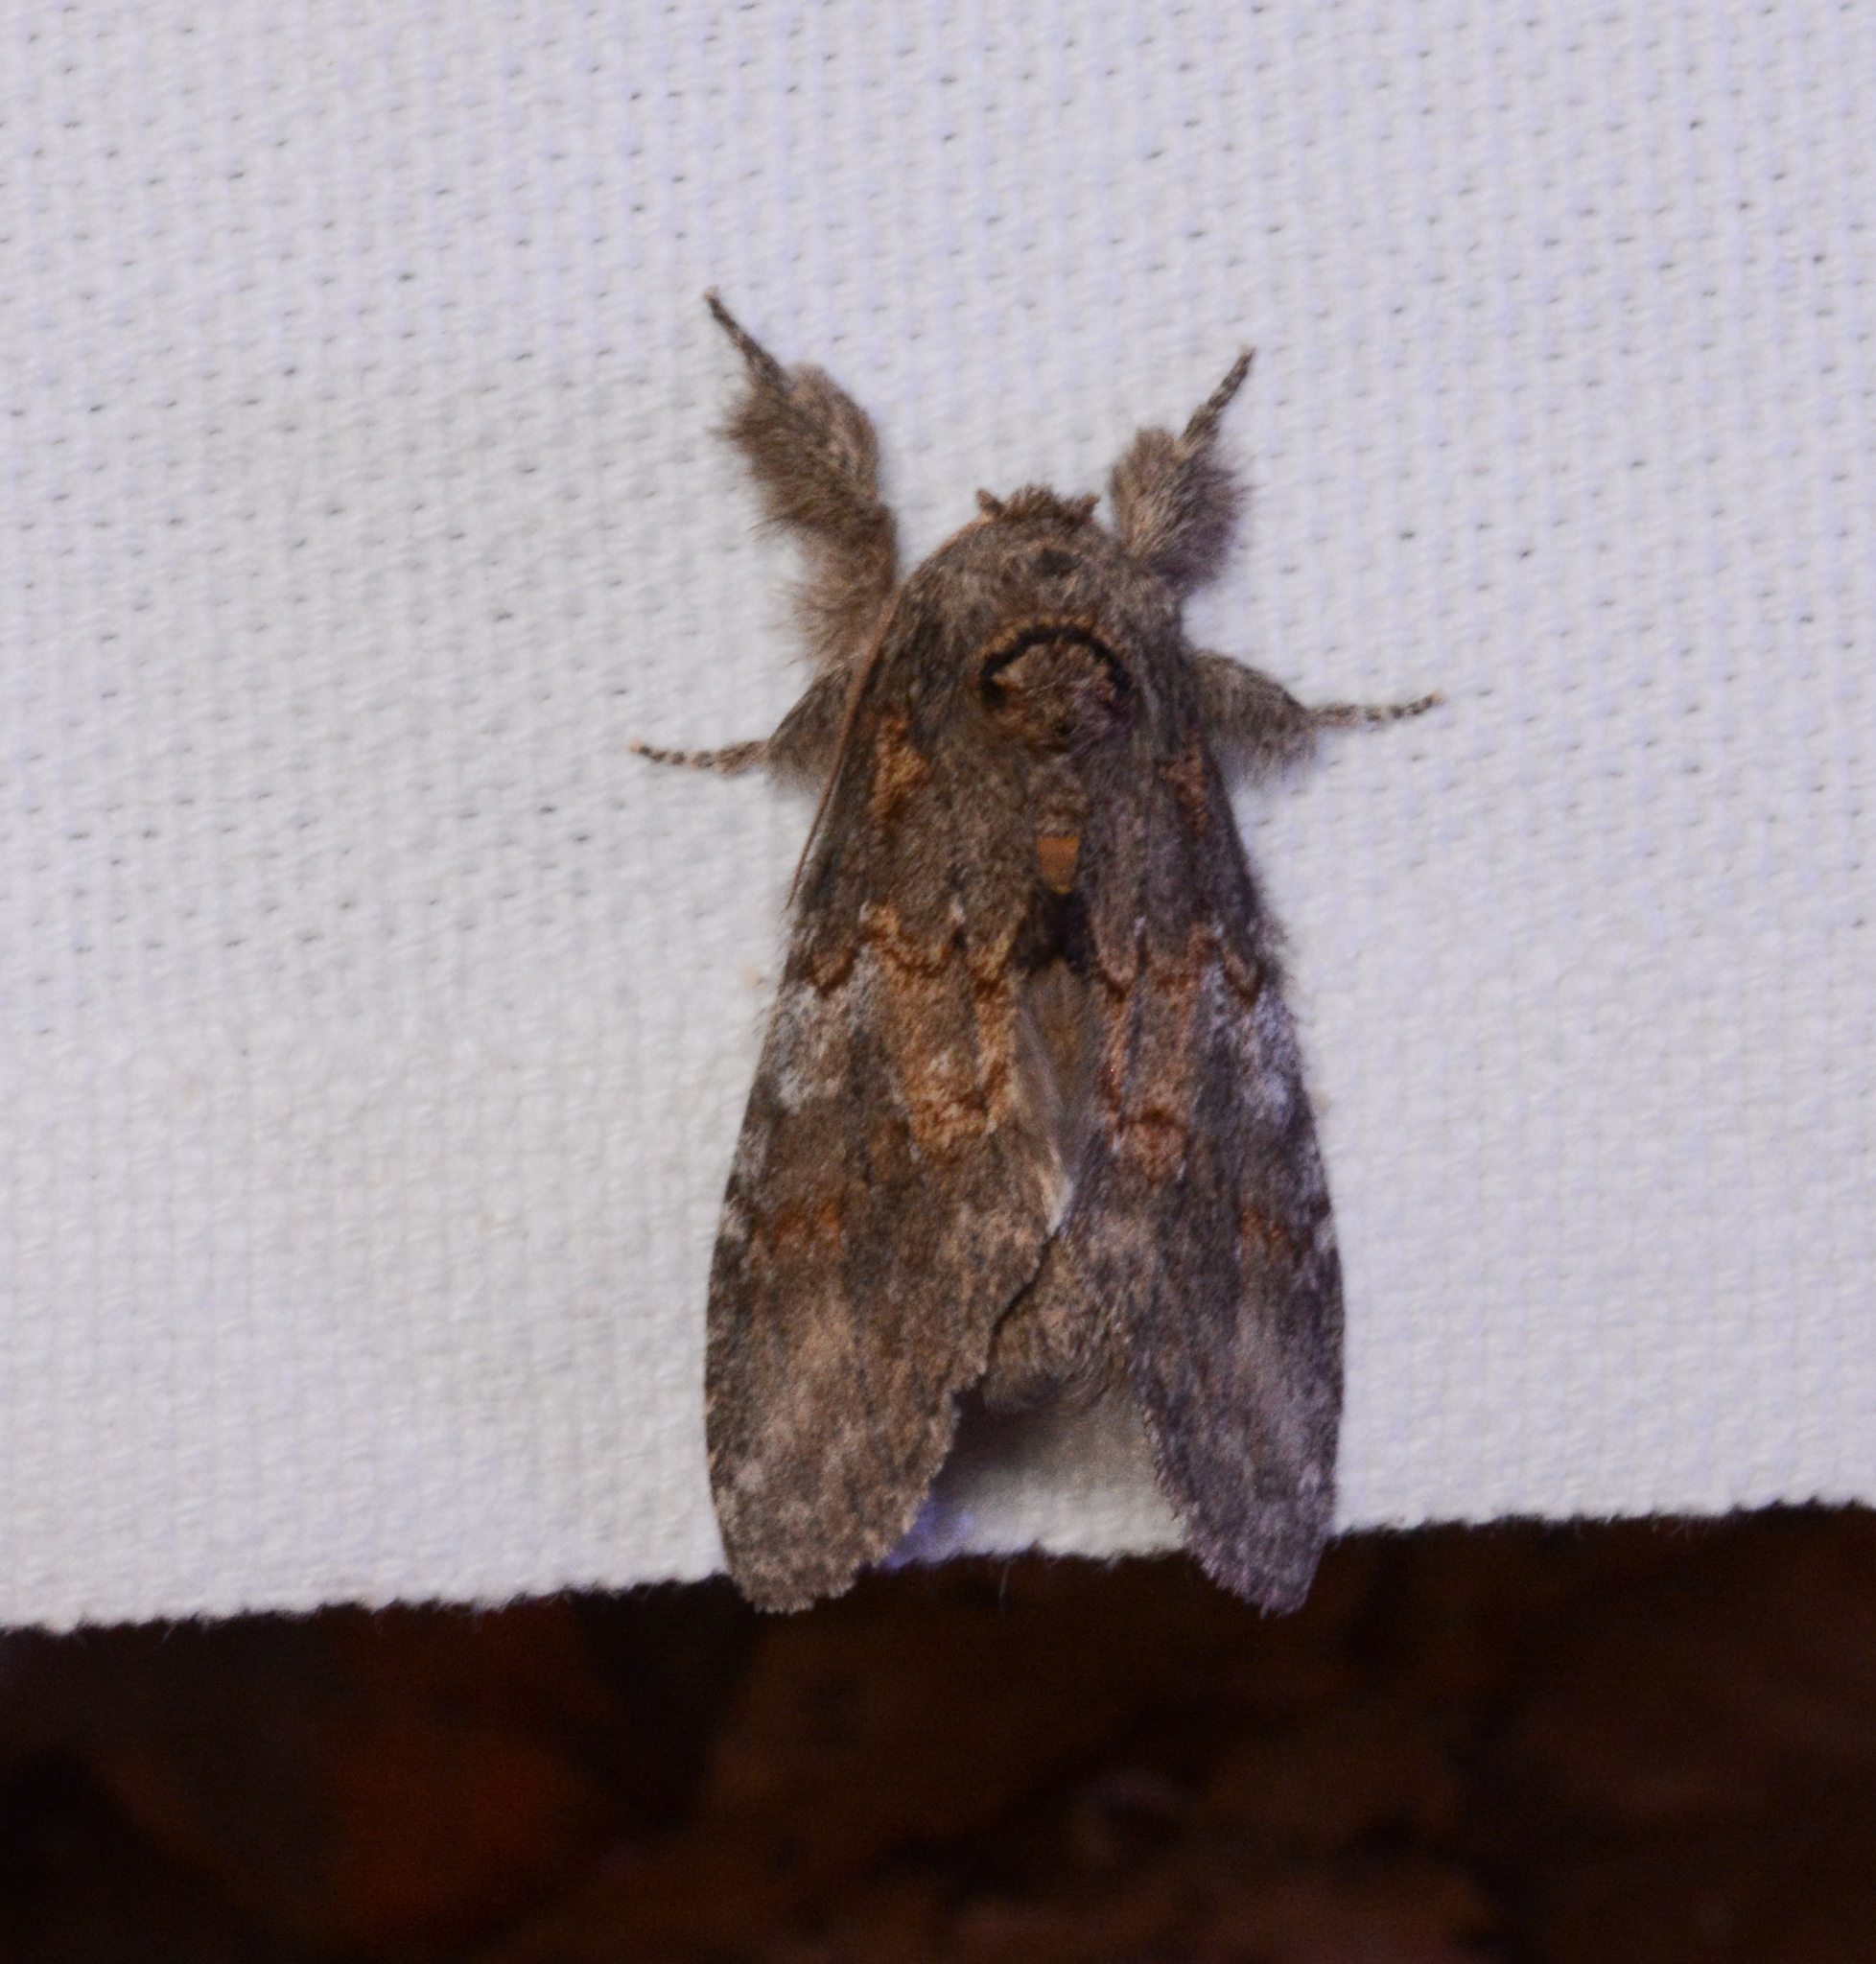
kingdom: Animalia
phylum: Arthropoda
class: Insecta
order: Lepidoptera
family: Notodontidae
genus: Peridea
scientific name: Peridea angulosa
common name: Angulose prominent
